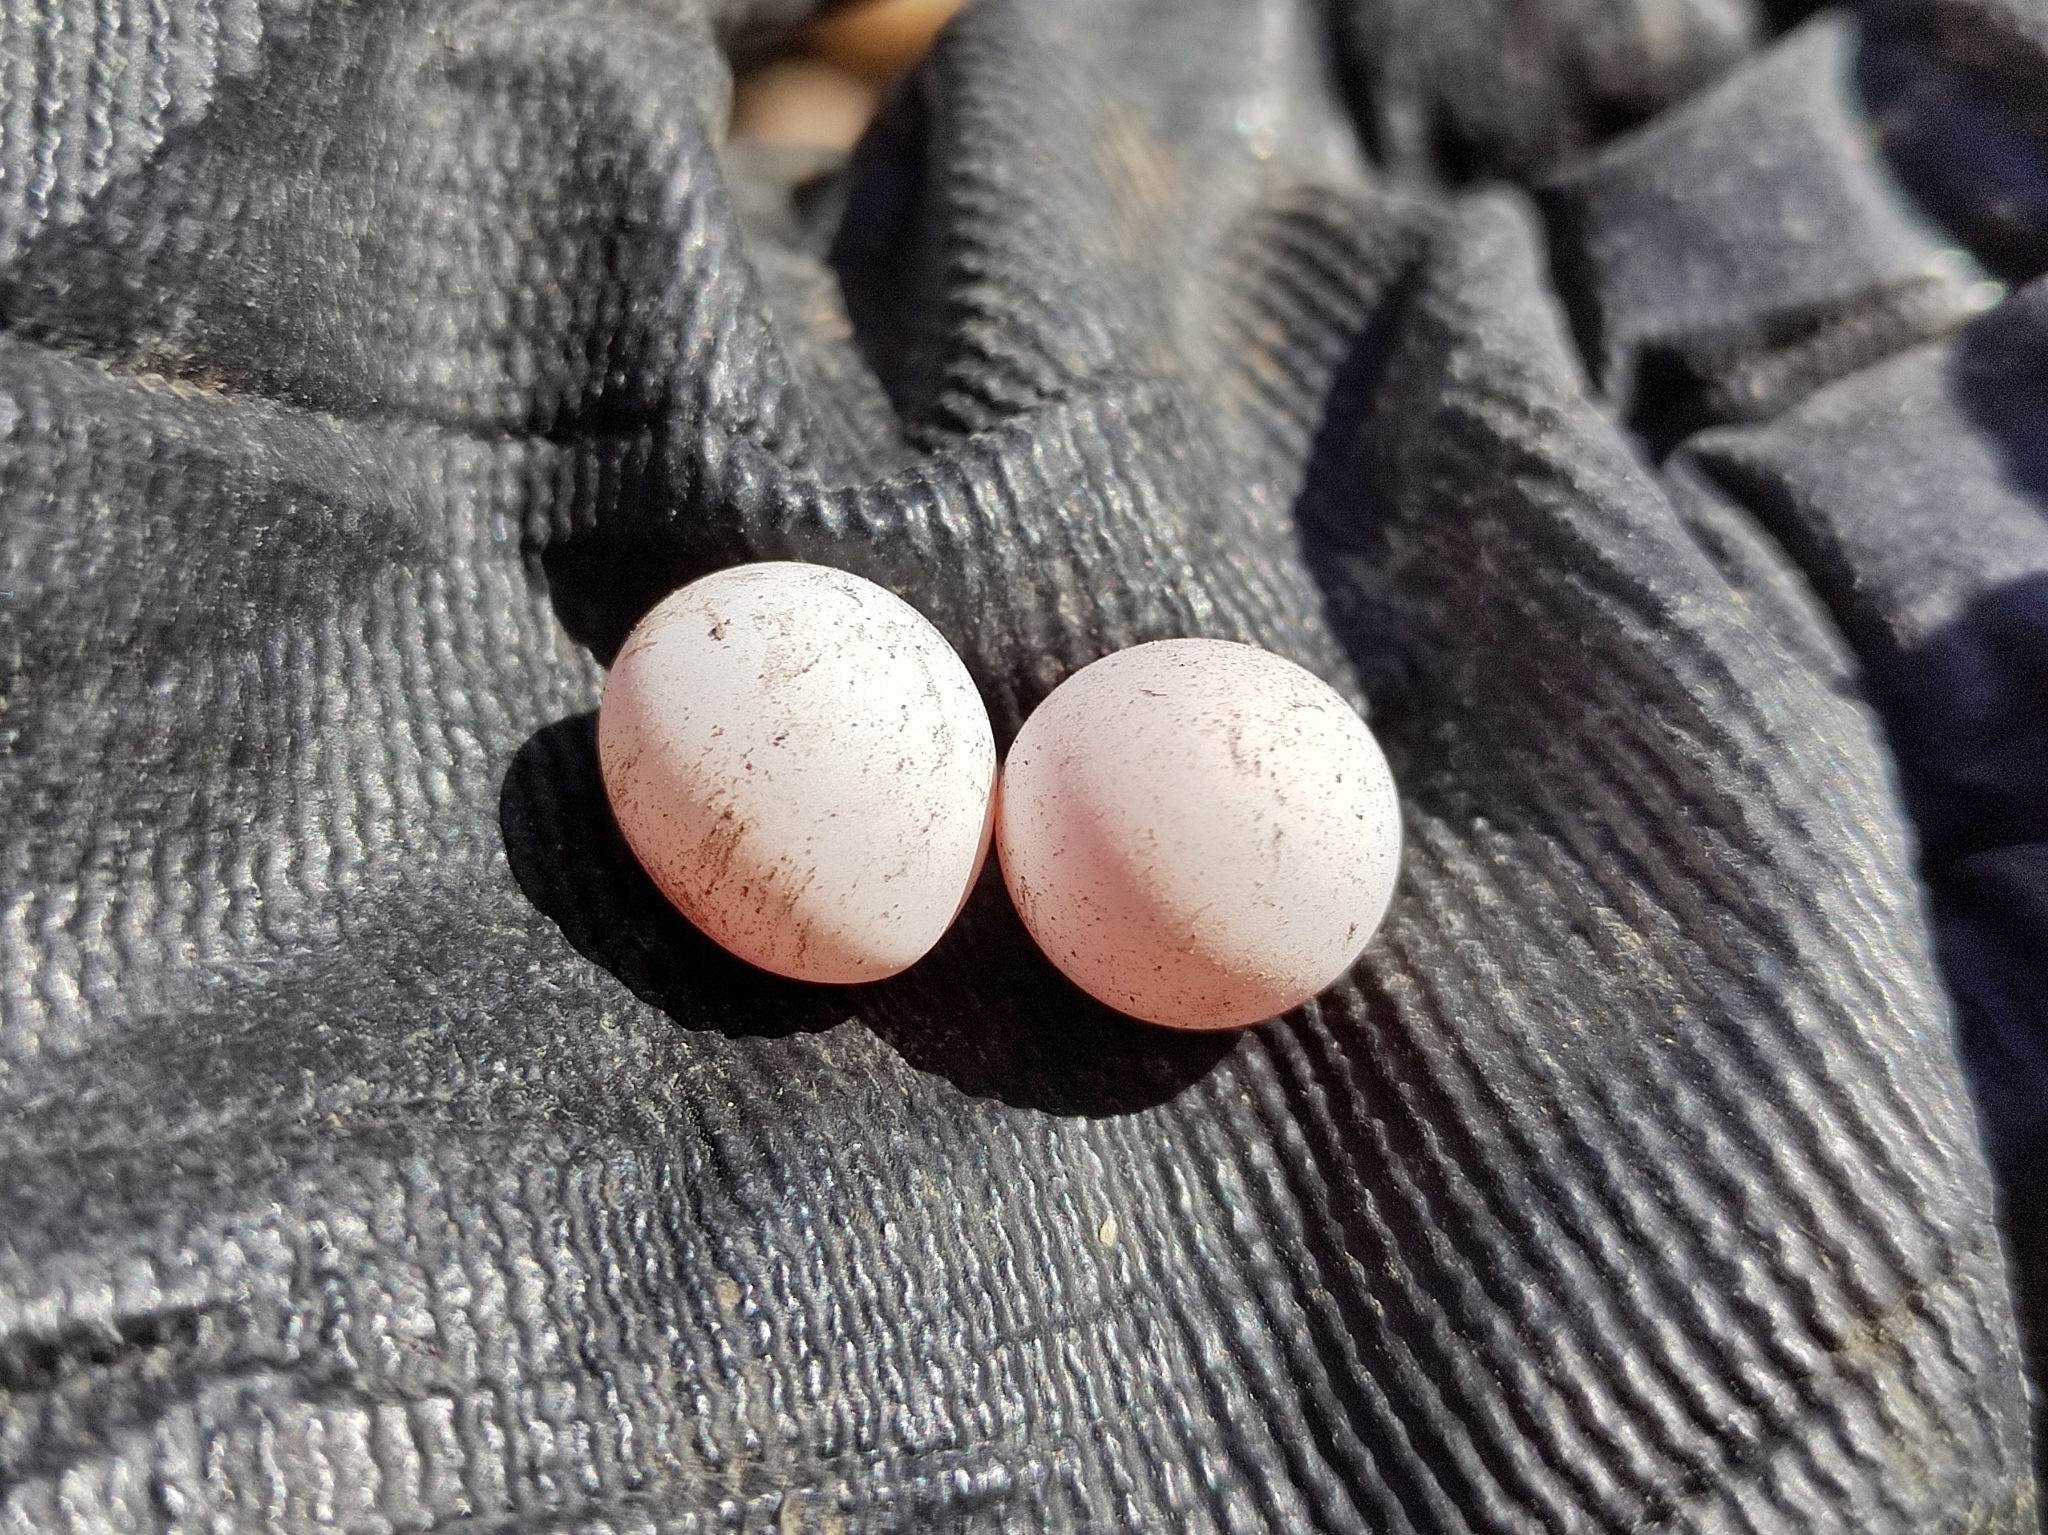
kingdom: Animalia
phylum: Chordata
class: Squamata
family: Lacertidae
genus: Lacerta
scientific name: Lacerta agilis
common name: Sand lizard
